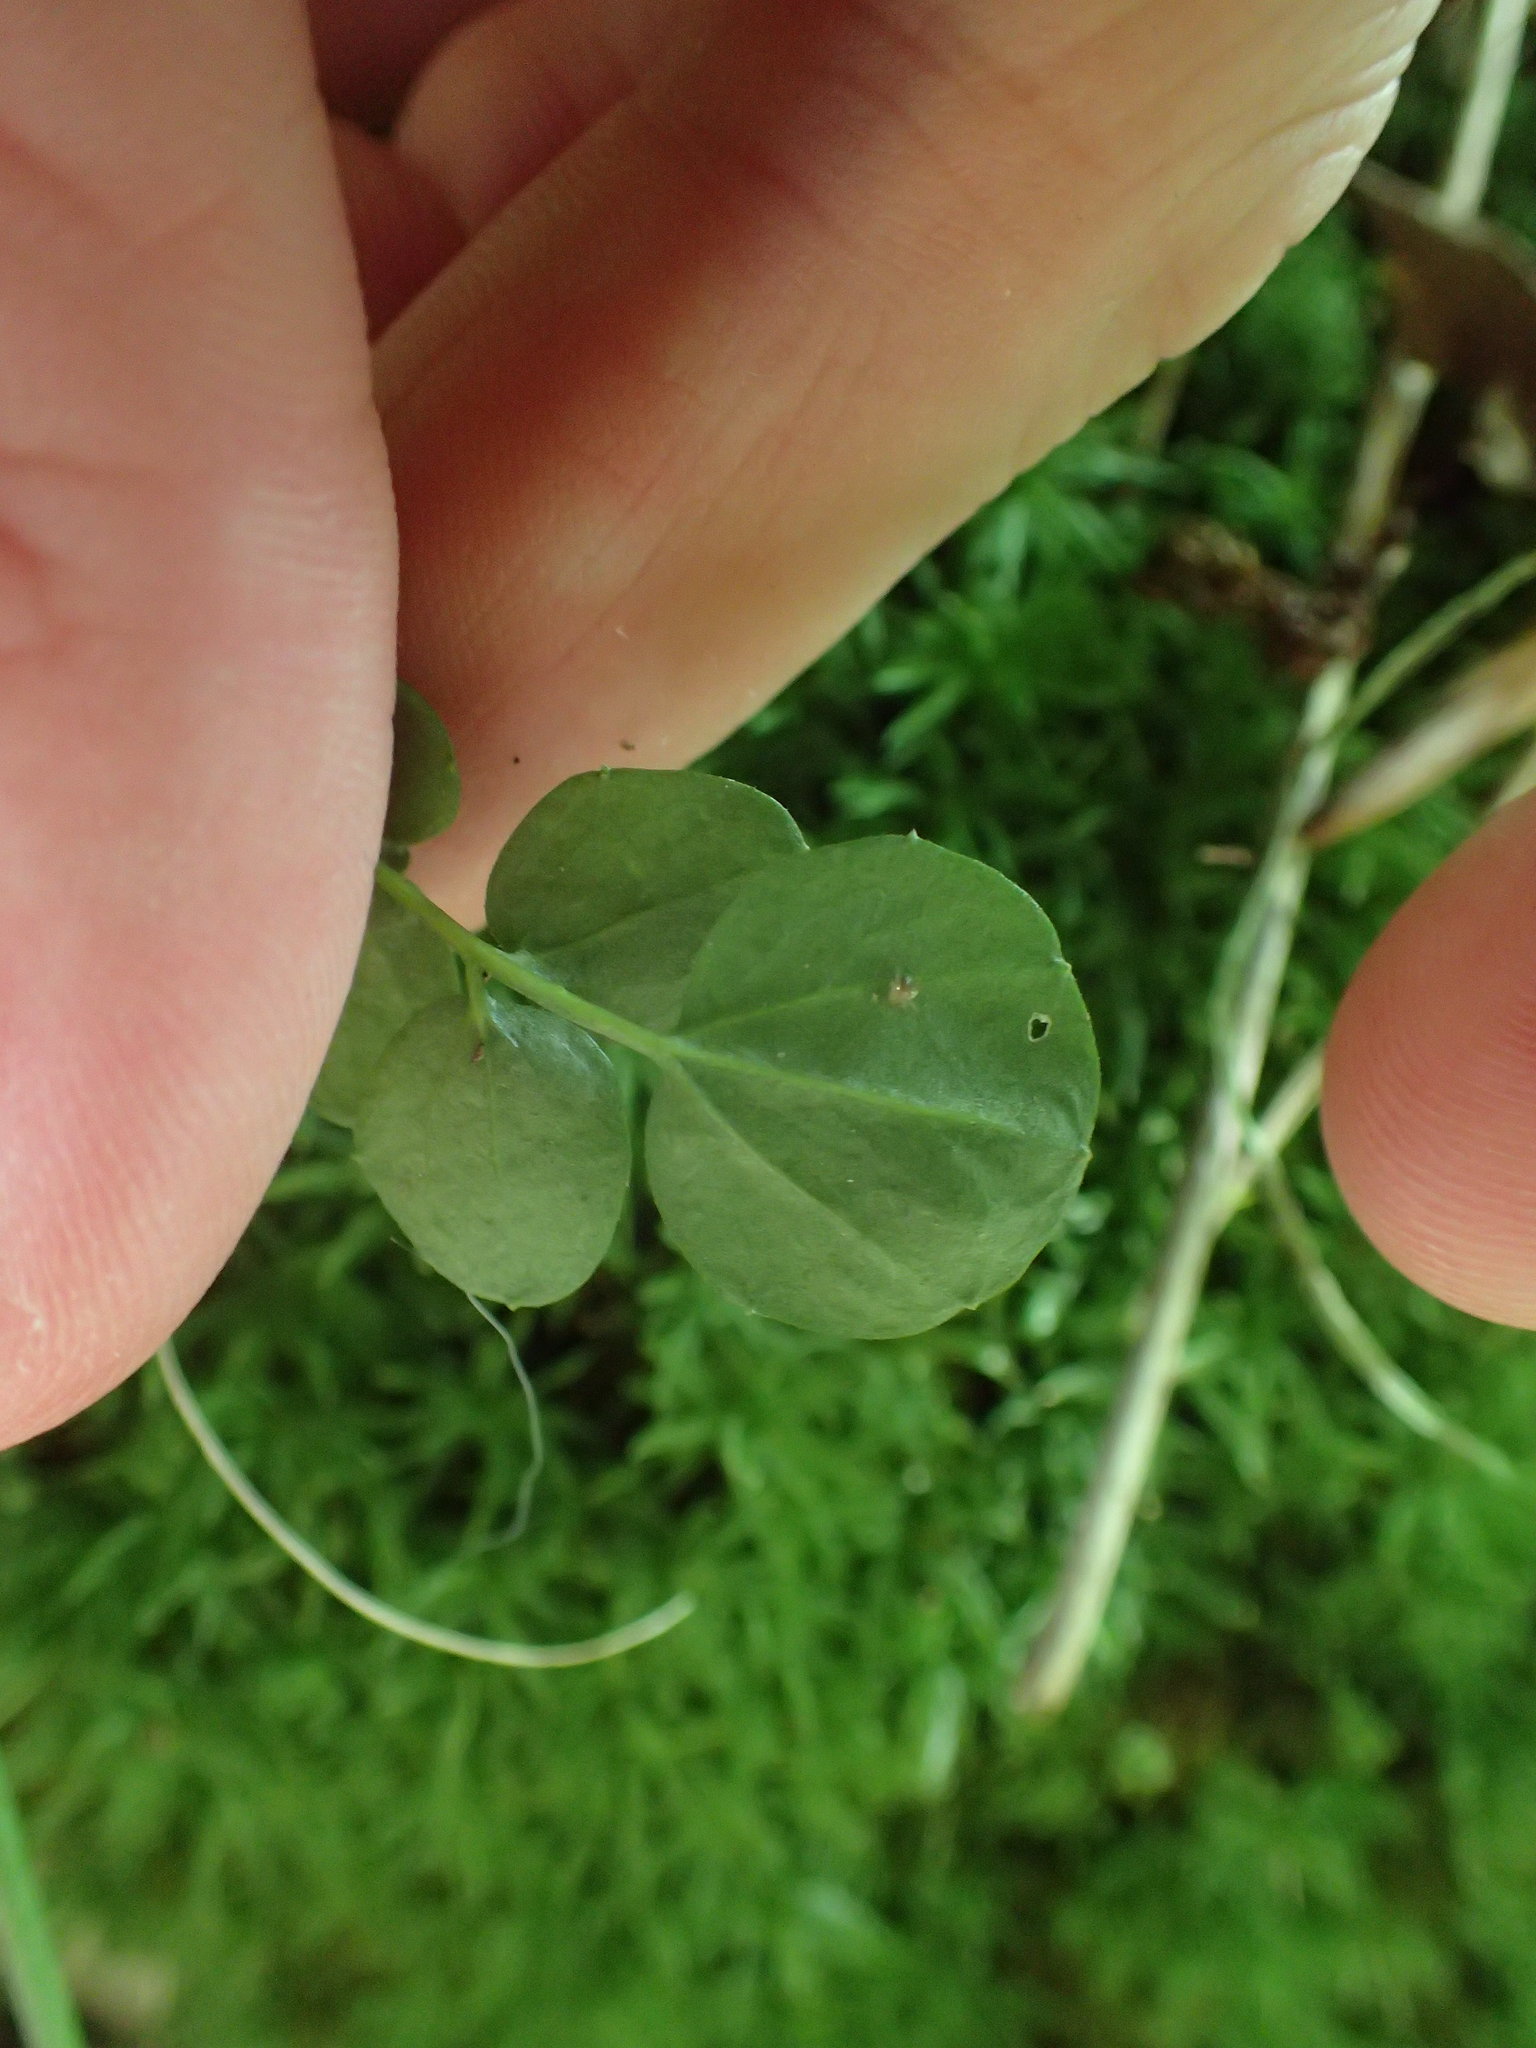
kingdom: Plantae
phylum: Tracheophyta
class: Magnoliopsida
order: Ericales
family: Primulaceae
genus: Lysimachia
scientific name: Lysimachia nummularia
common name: Moneywort
